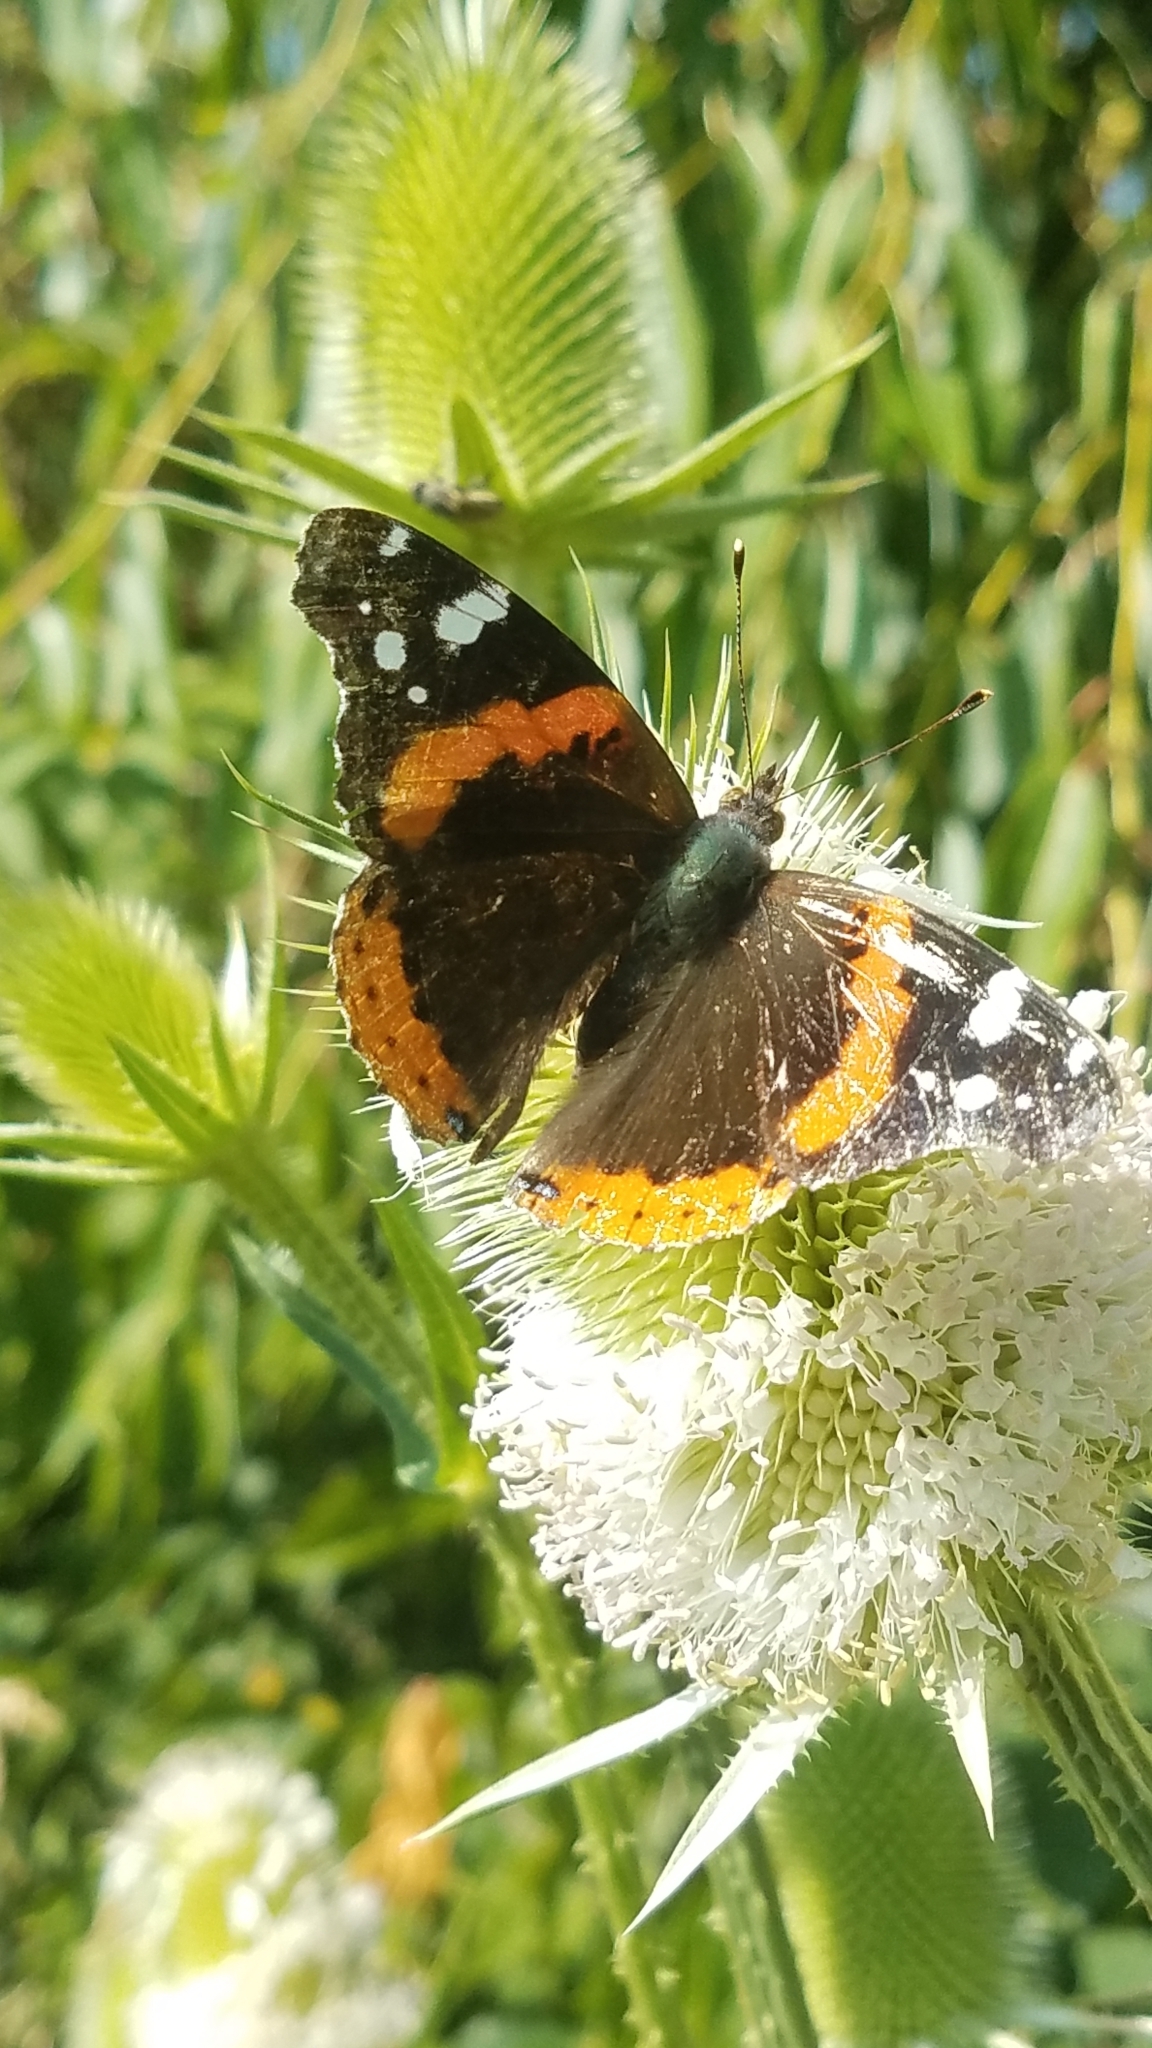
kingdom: Animalia
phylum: Arthropoda
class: Insecta
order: Lepidoptera
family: Nymphalidae
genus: Vanessa
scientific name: Vanessa atalanta
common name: Red admiral
